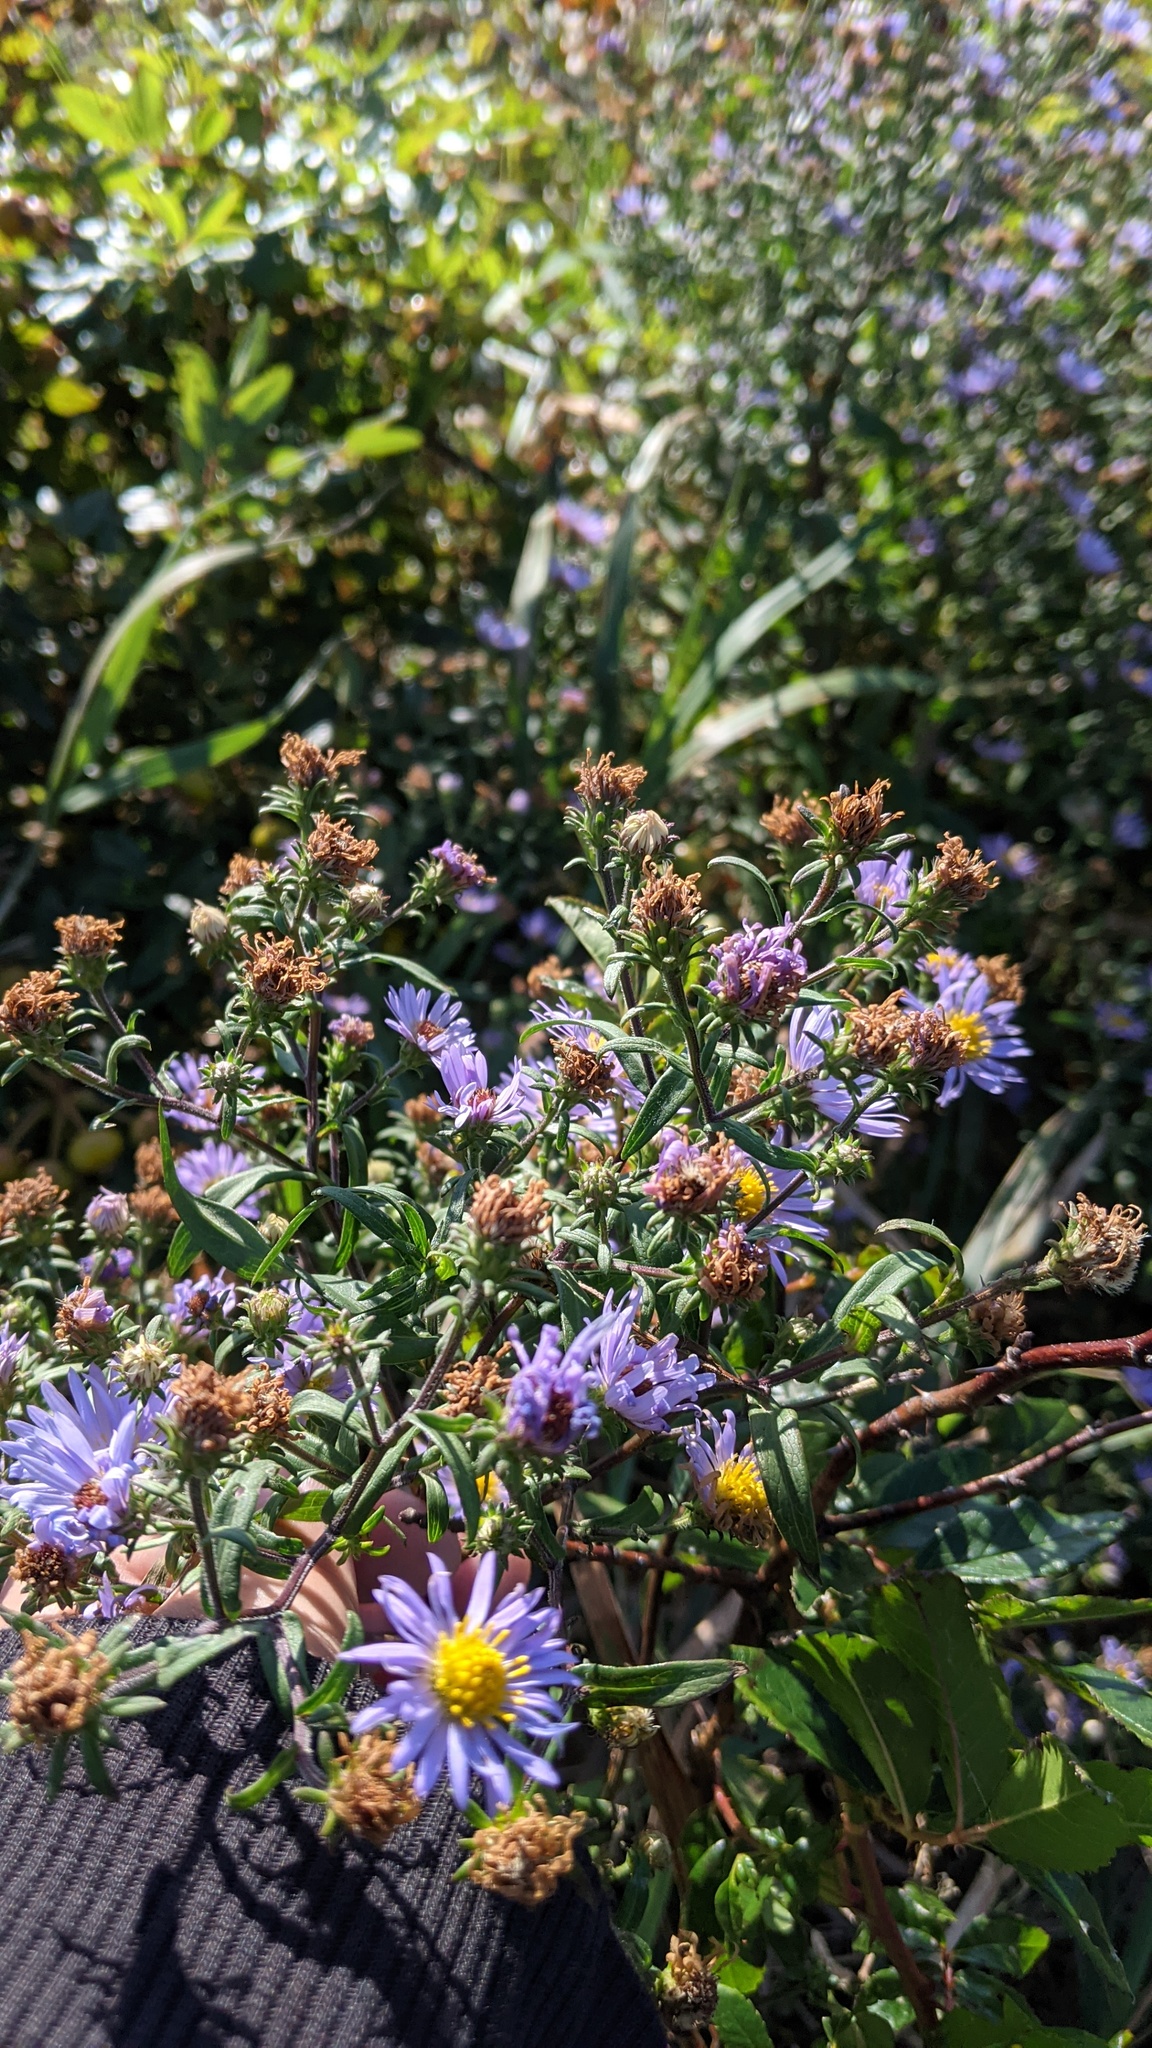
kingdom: Plantae
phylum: Tracheophyta
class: Magnoliopsida
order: Asterales
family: Asteraceae
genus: Symphyotrichum
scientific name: Symphyotrichum novi-belgii
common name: Michaelmas daisy
